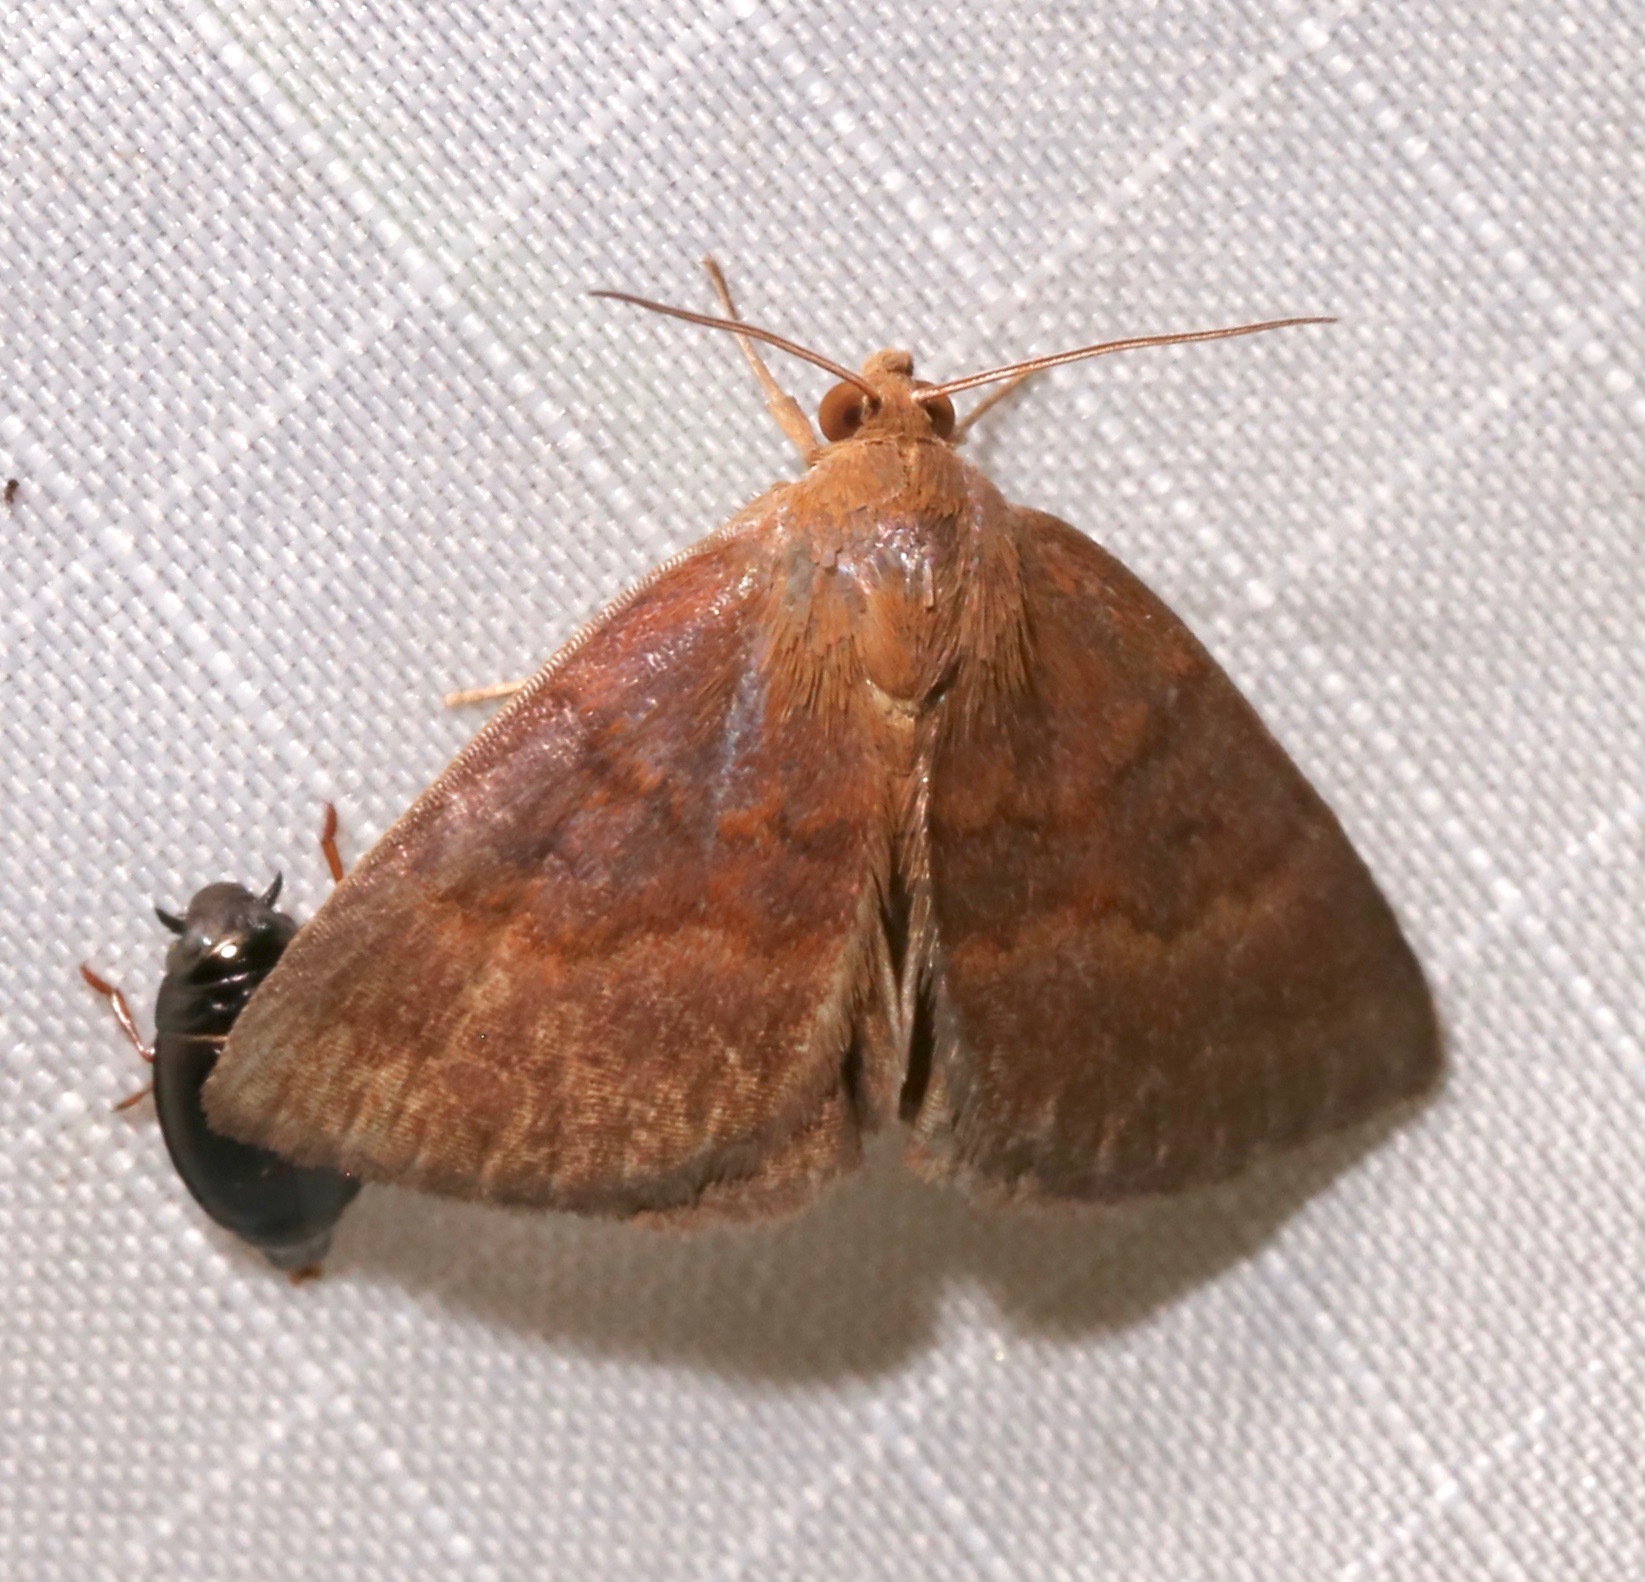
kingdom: Animalia
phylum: Arthropoda
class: Insecta
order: Lepidoptera
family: Erebidae
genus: Argyrostrotis
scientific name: Argyrostrotis deleta
